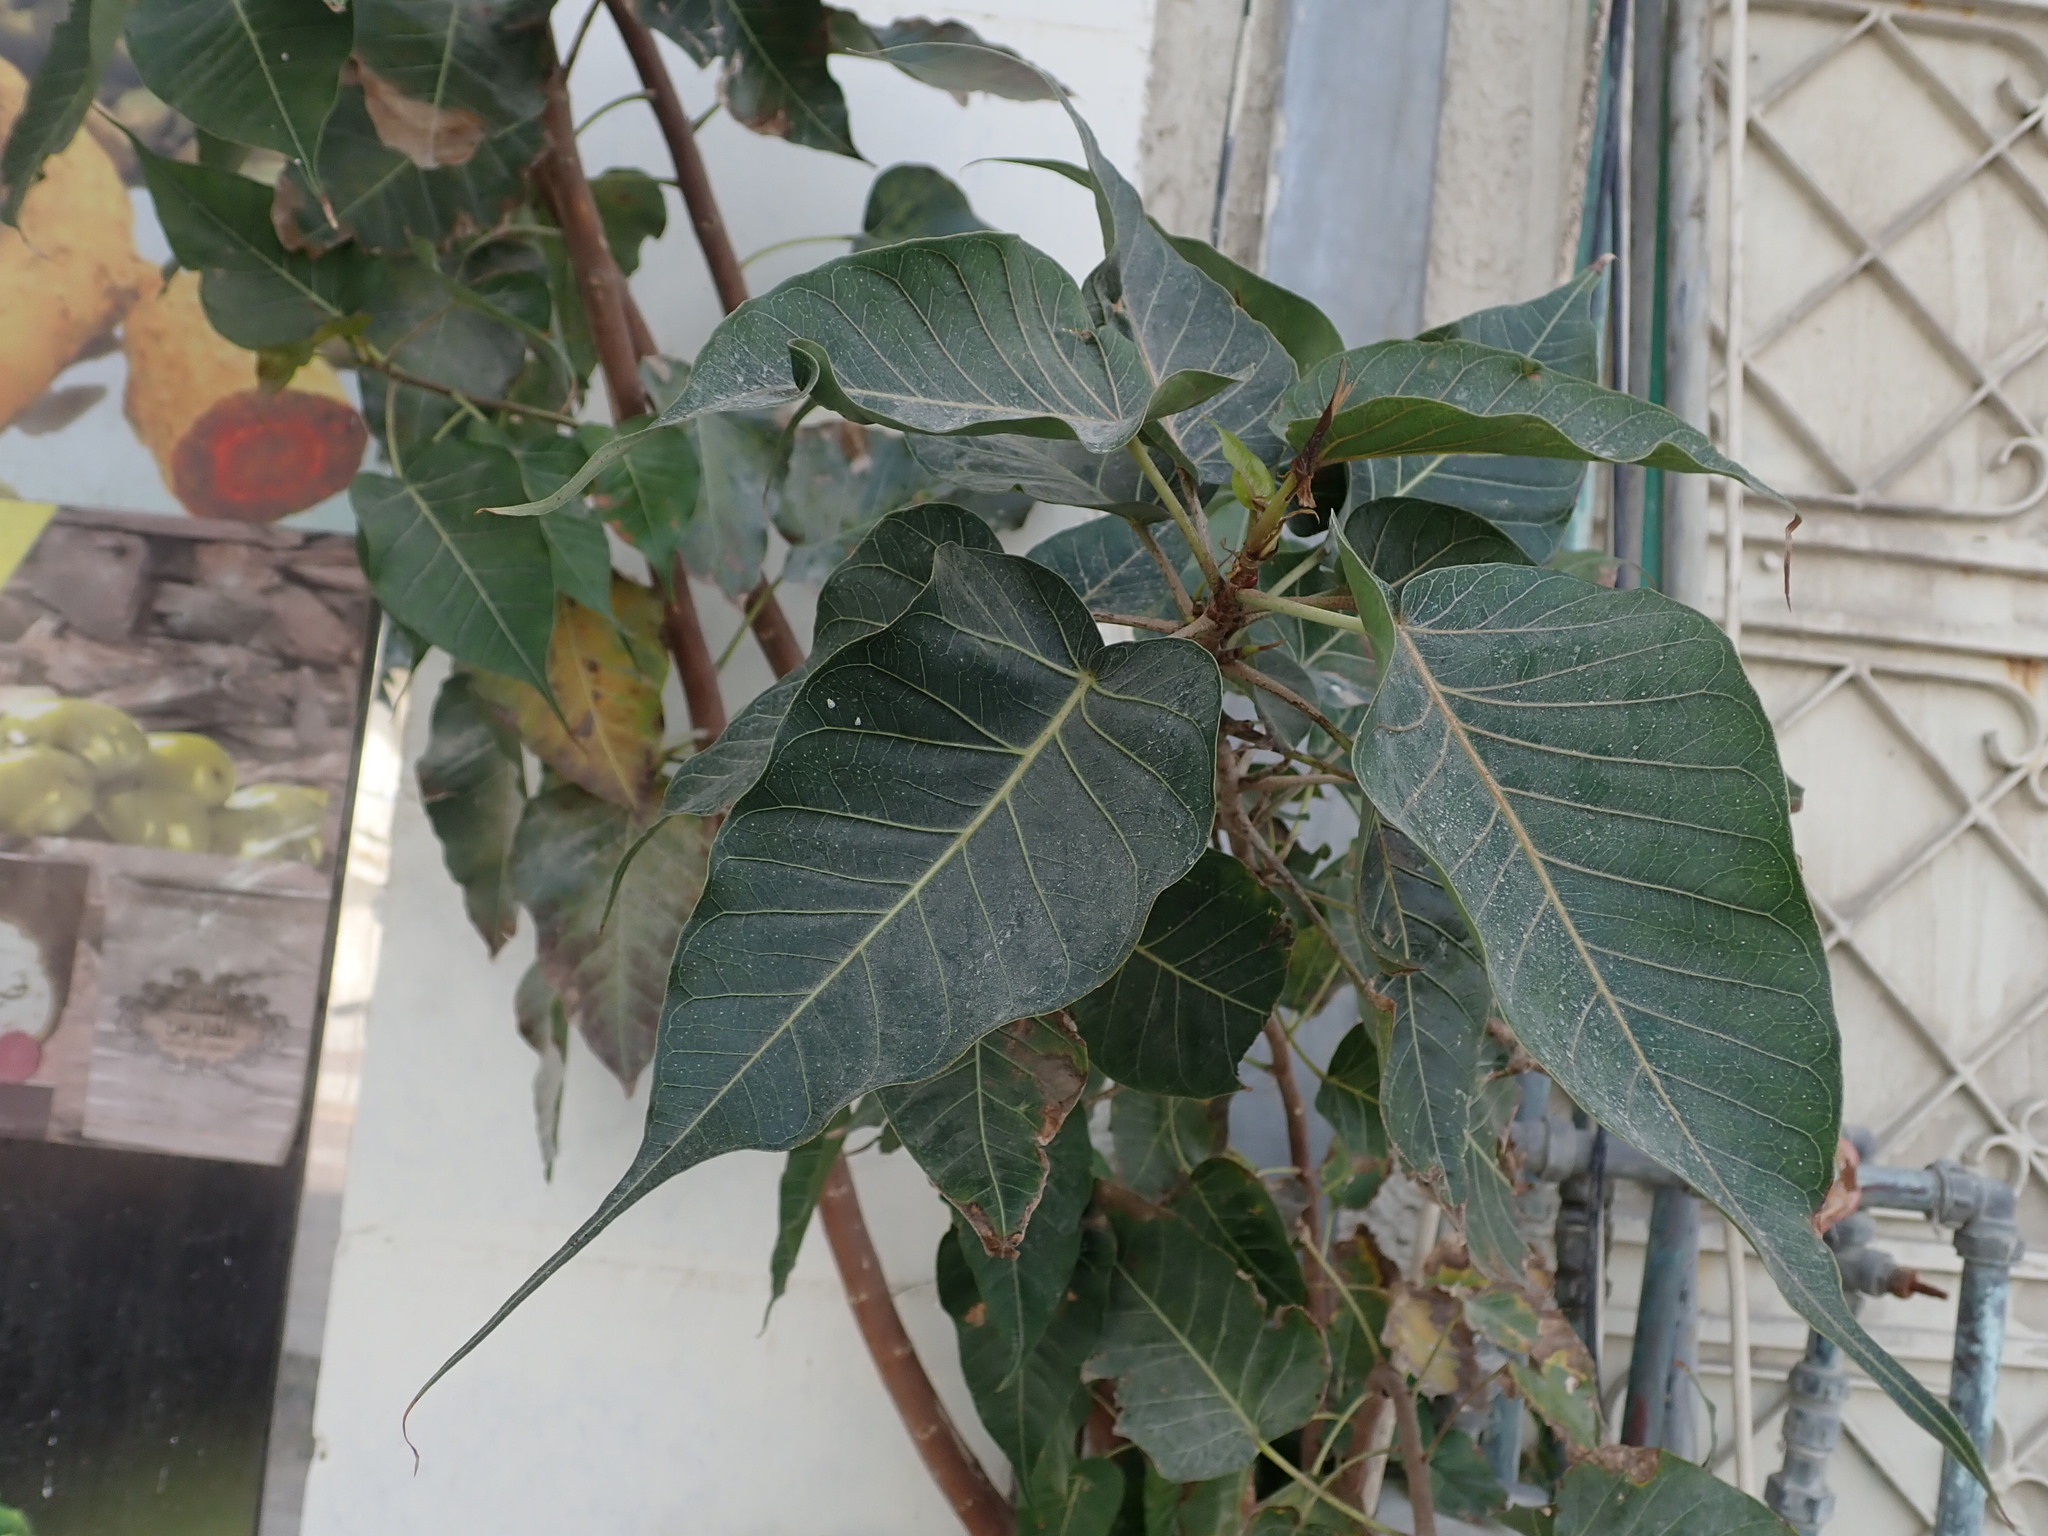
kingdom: Plantae
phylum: Tracheophyta
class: Magnoliopsida
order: Rosales
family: Moraceae
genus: Ficus
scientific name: Ficus religiosa
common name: Bodhi tree
